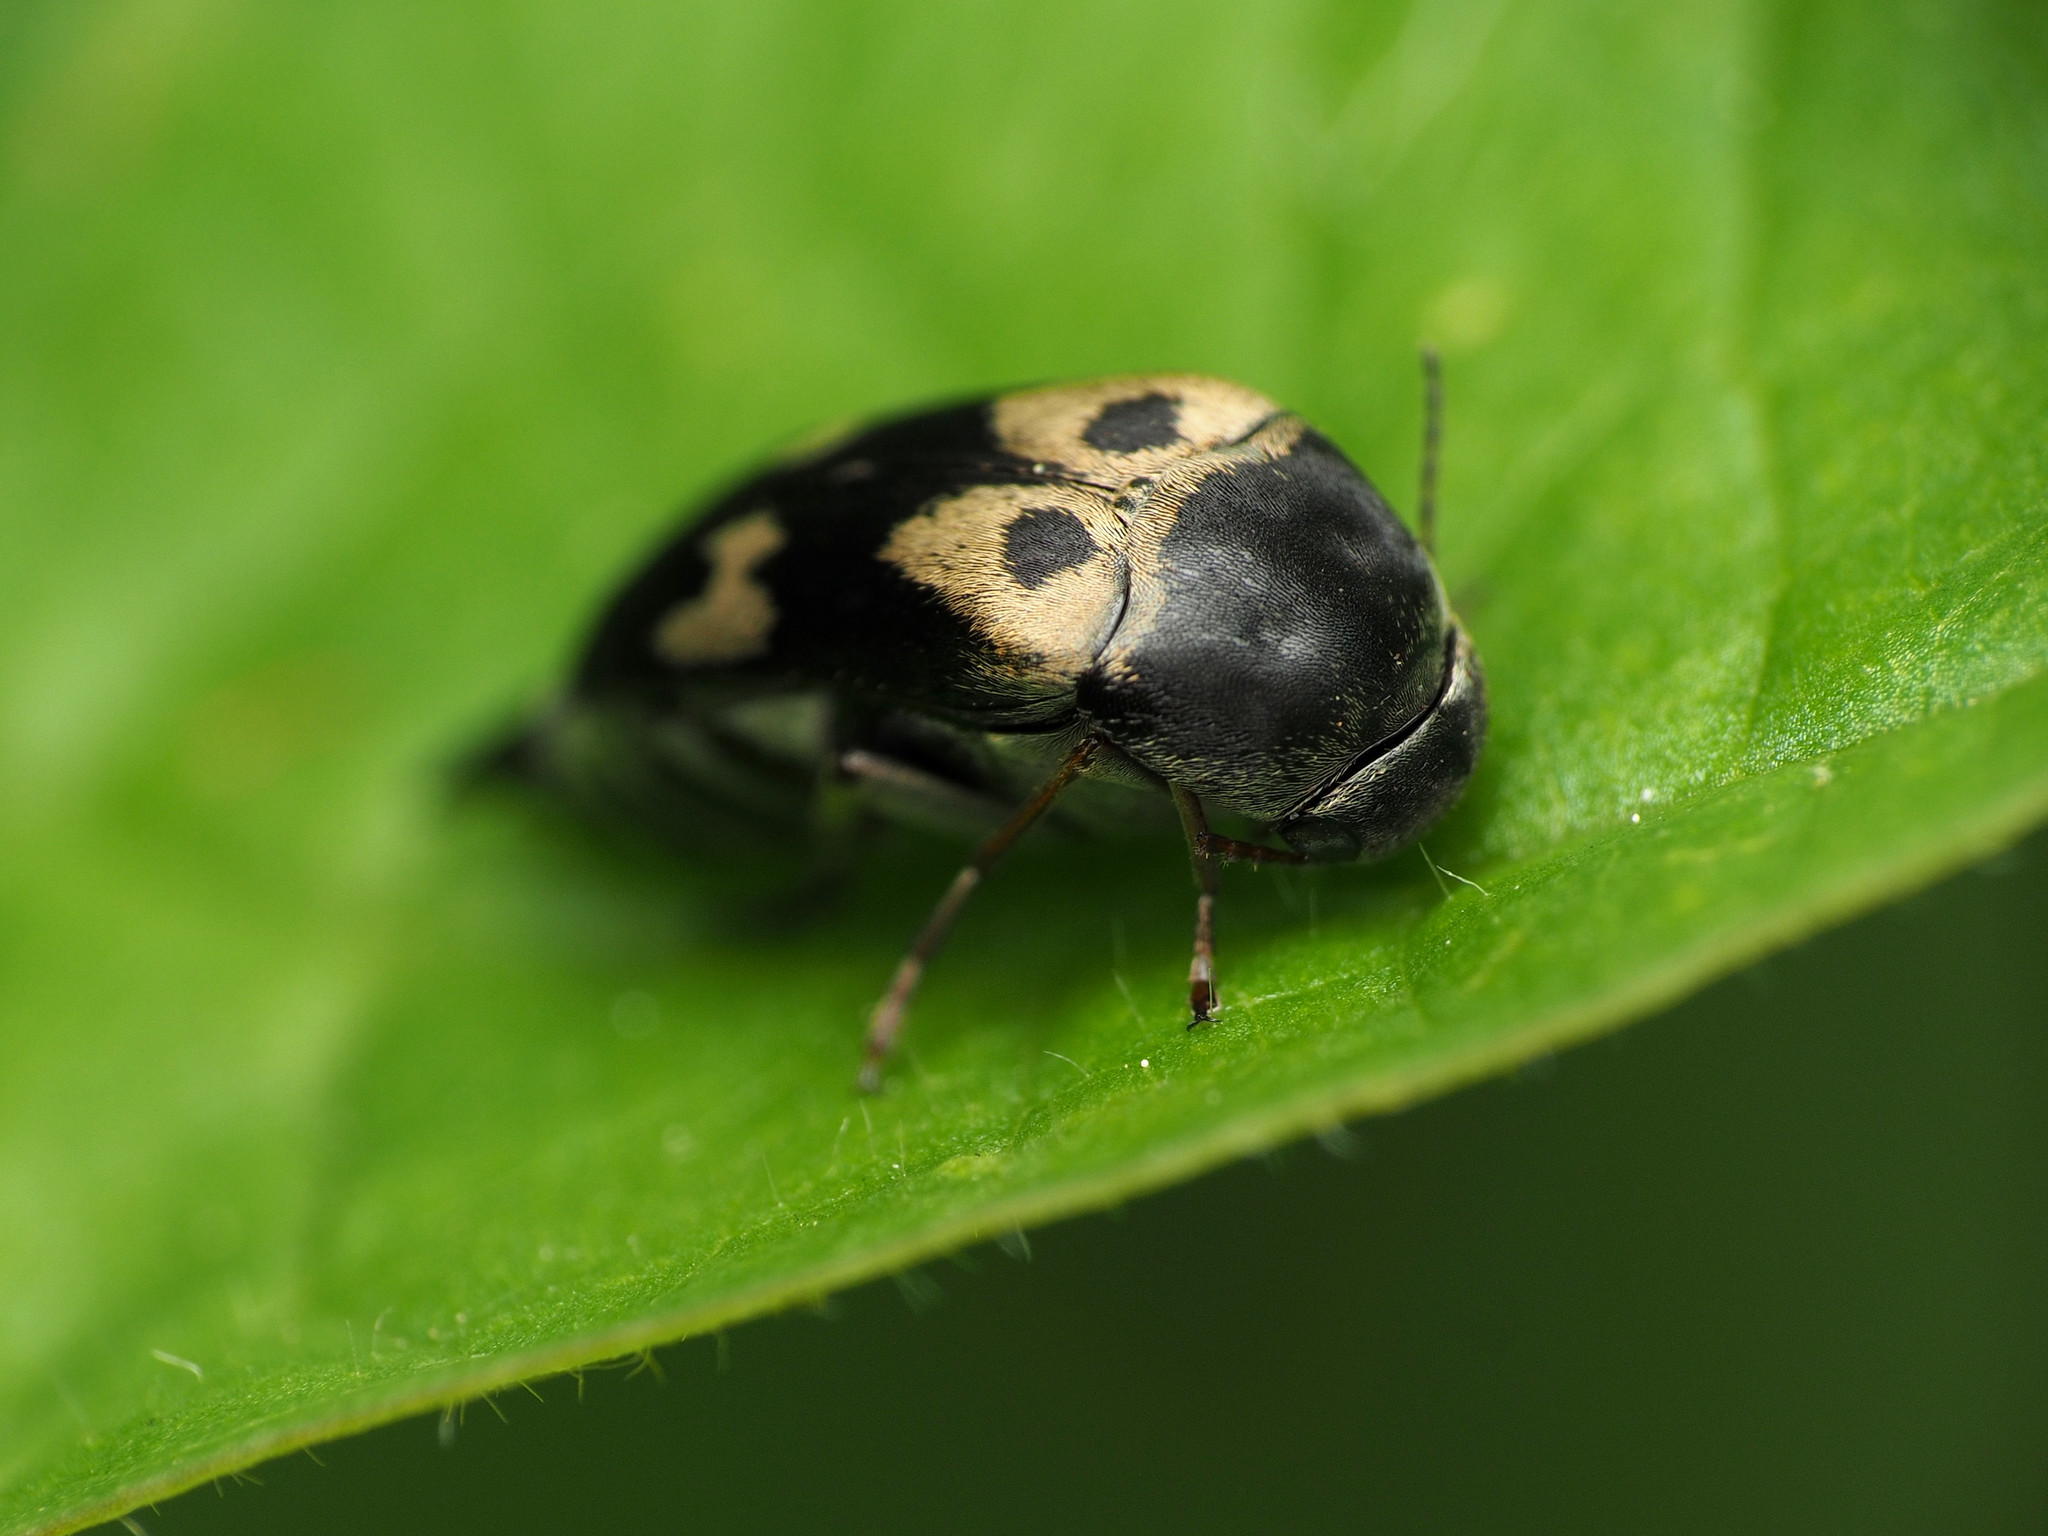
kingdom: Animalia
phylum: Arthropoda
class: Insecta
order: Coleoptera
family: Mordellidae
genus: Glipa
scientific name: Glipa oculata
